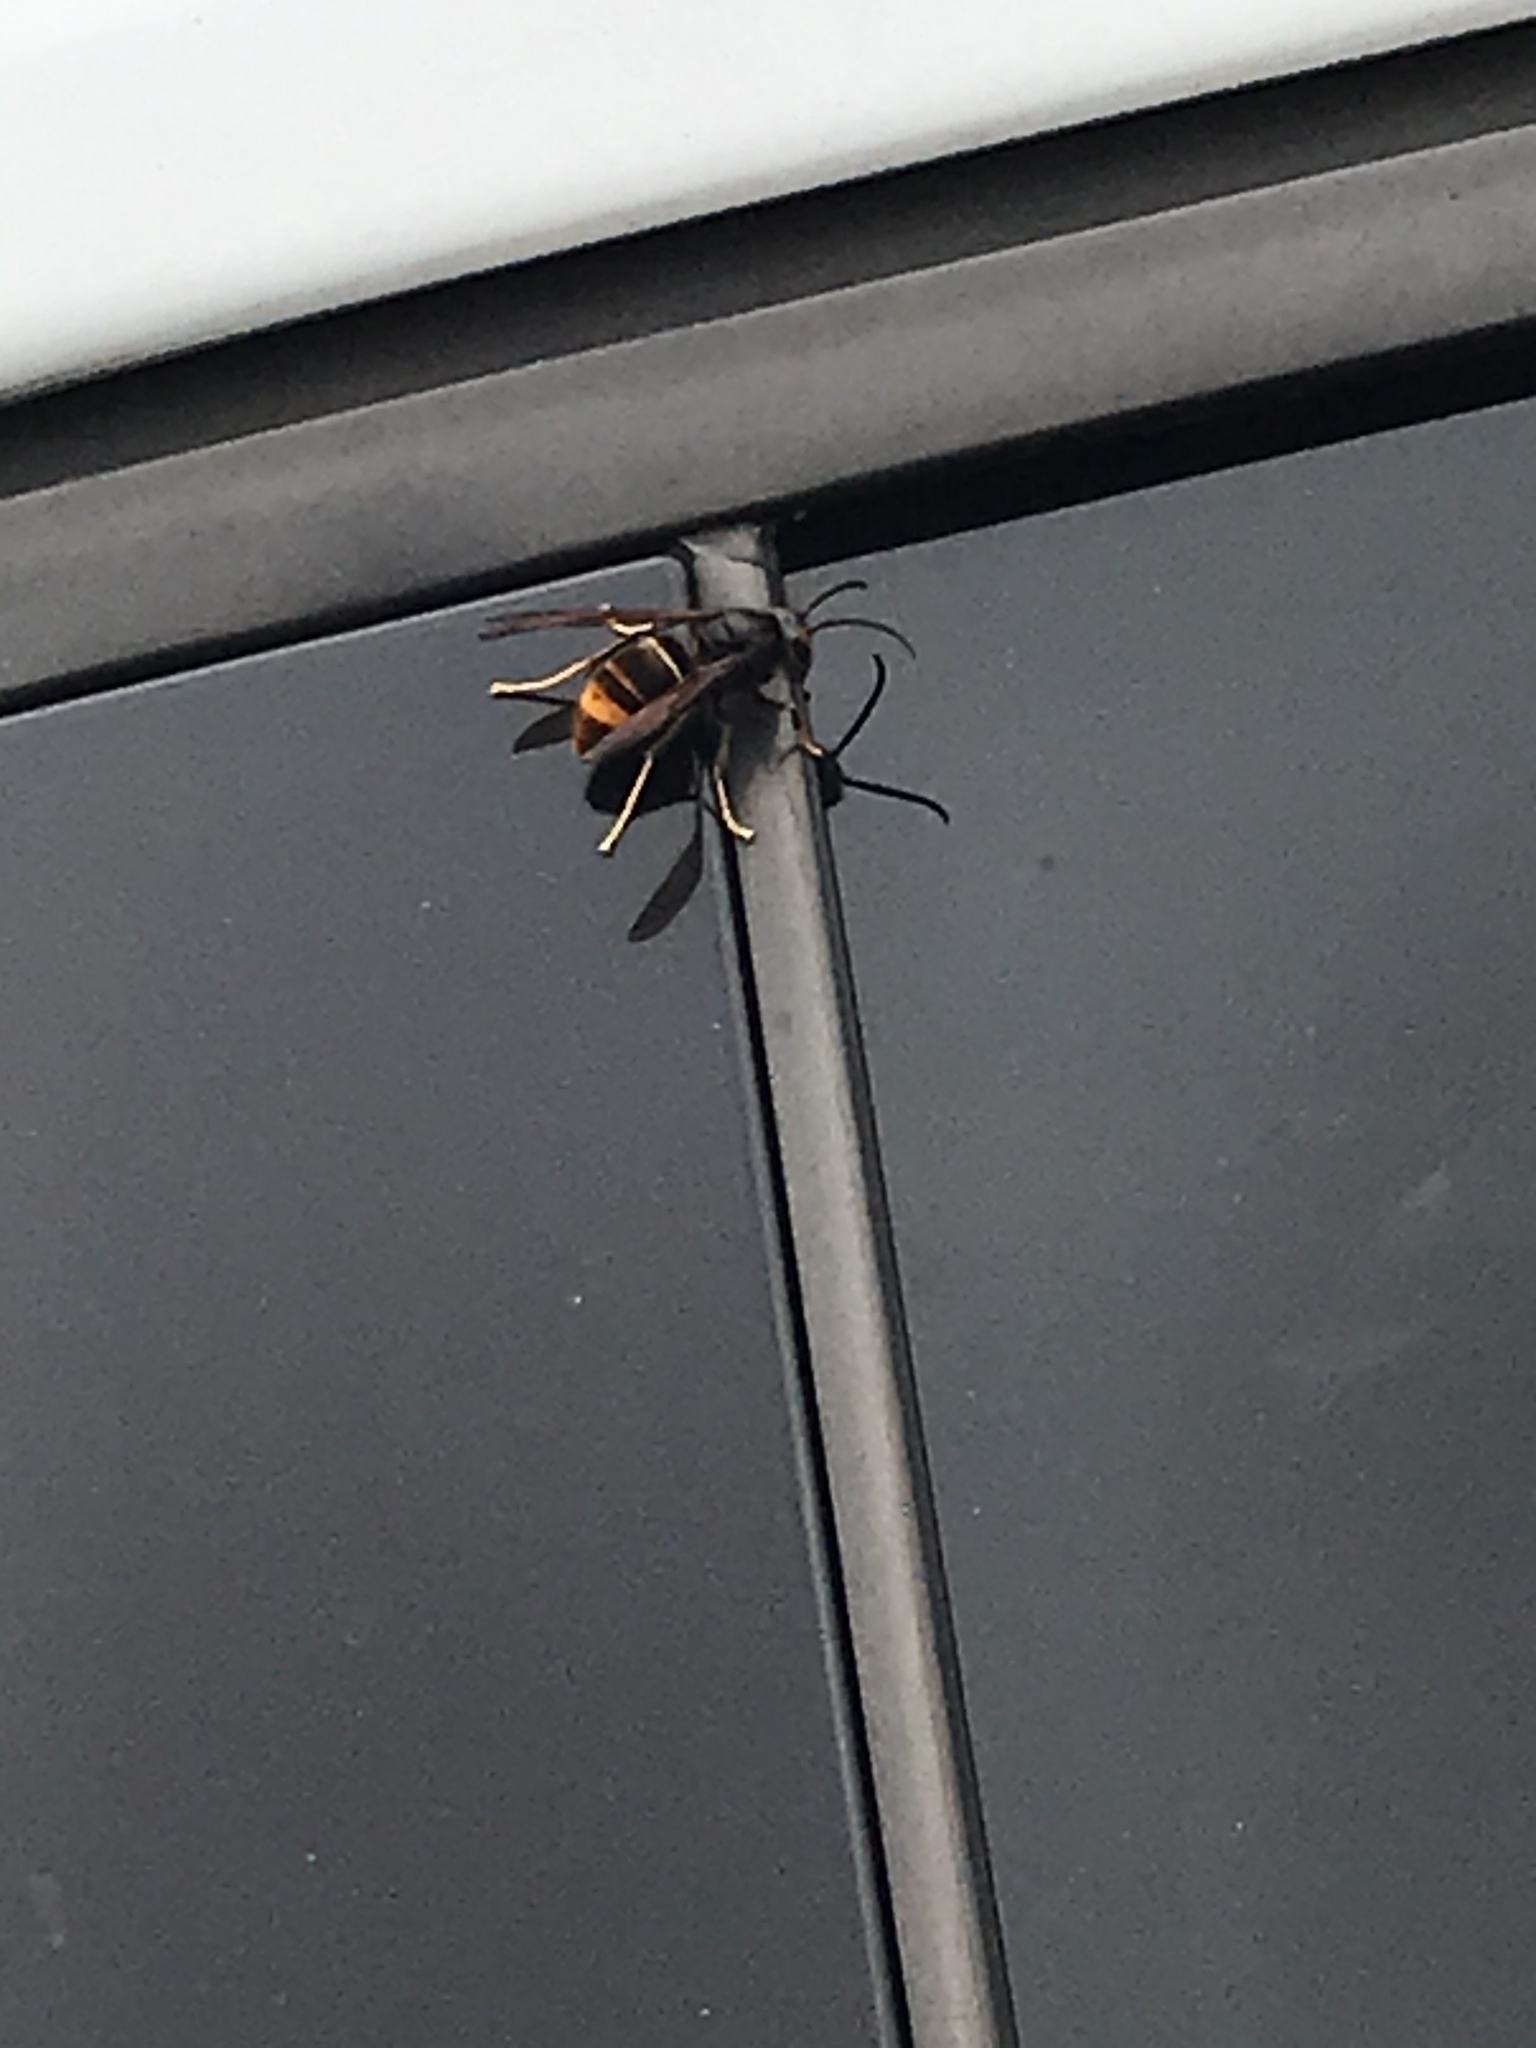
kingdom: Animalia
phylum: Arthropoda
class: Insecta
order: Hymenoptera
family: Vespidae
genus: Vespa
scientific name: Vespa velutina
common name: Asian hornet
